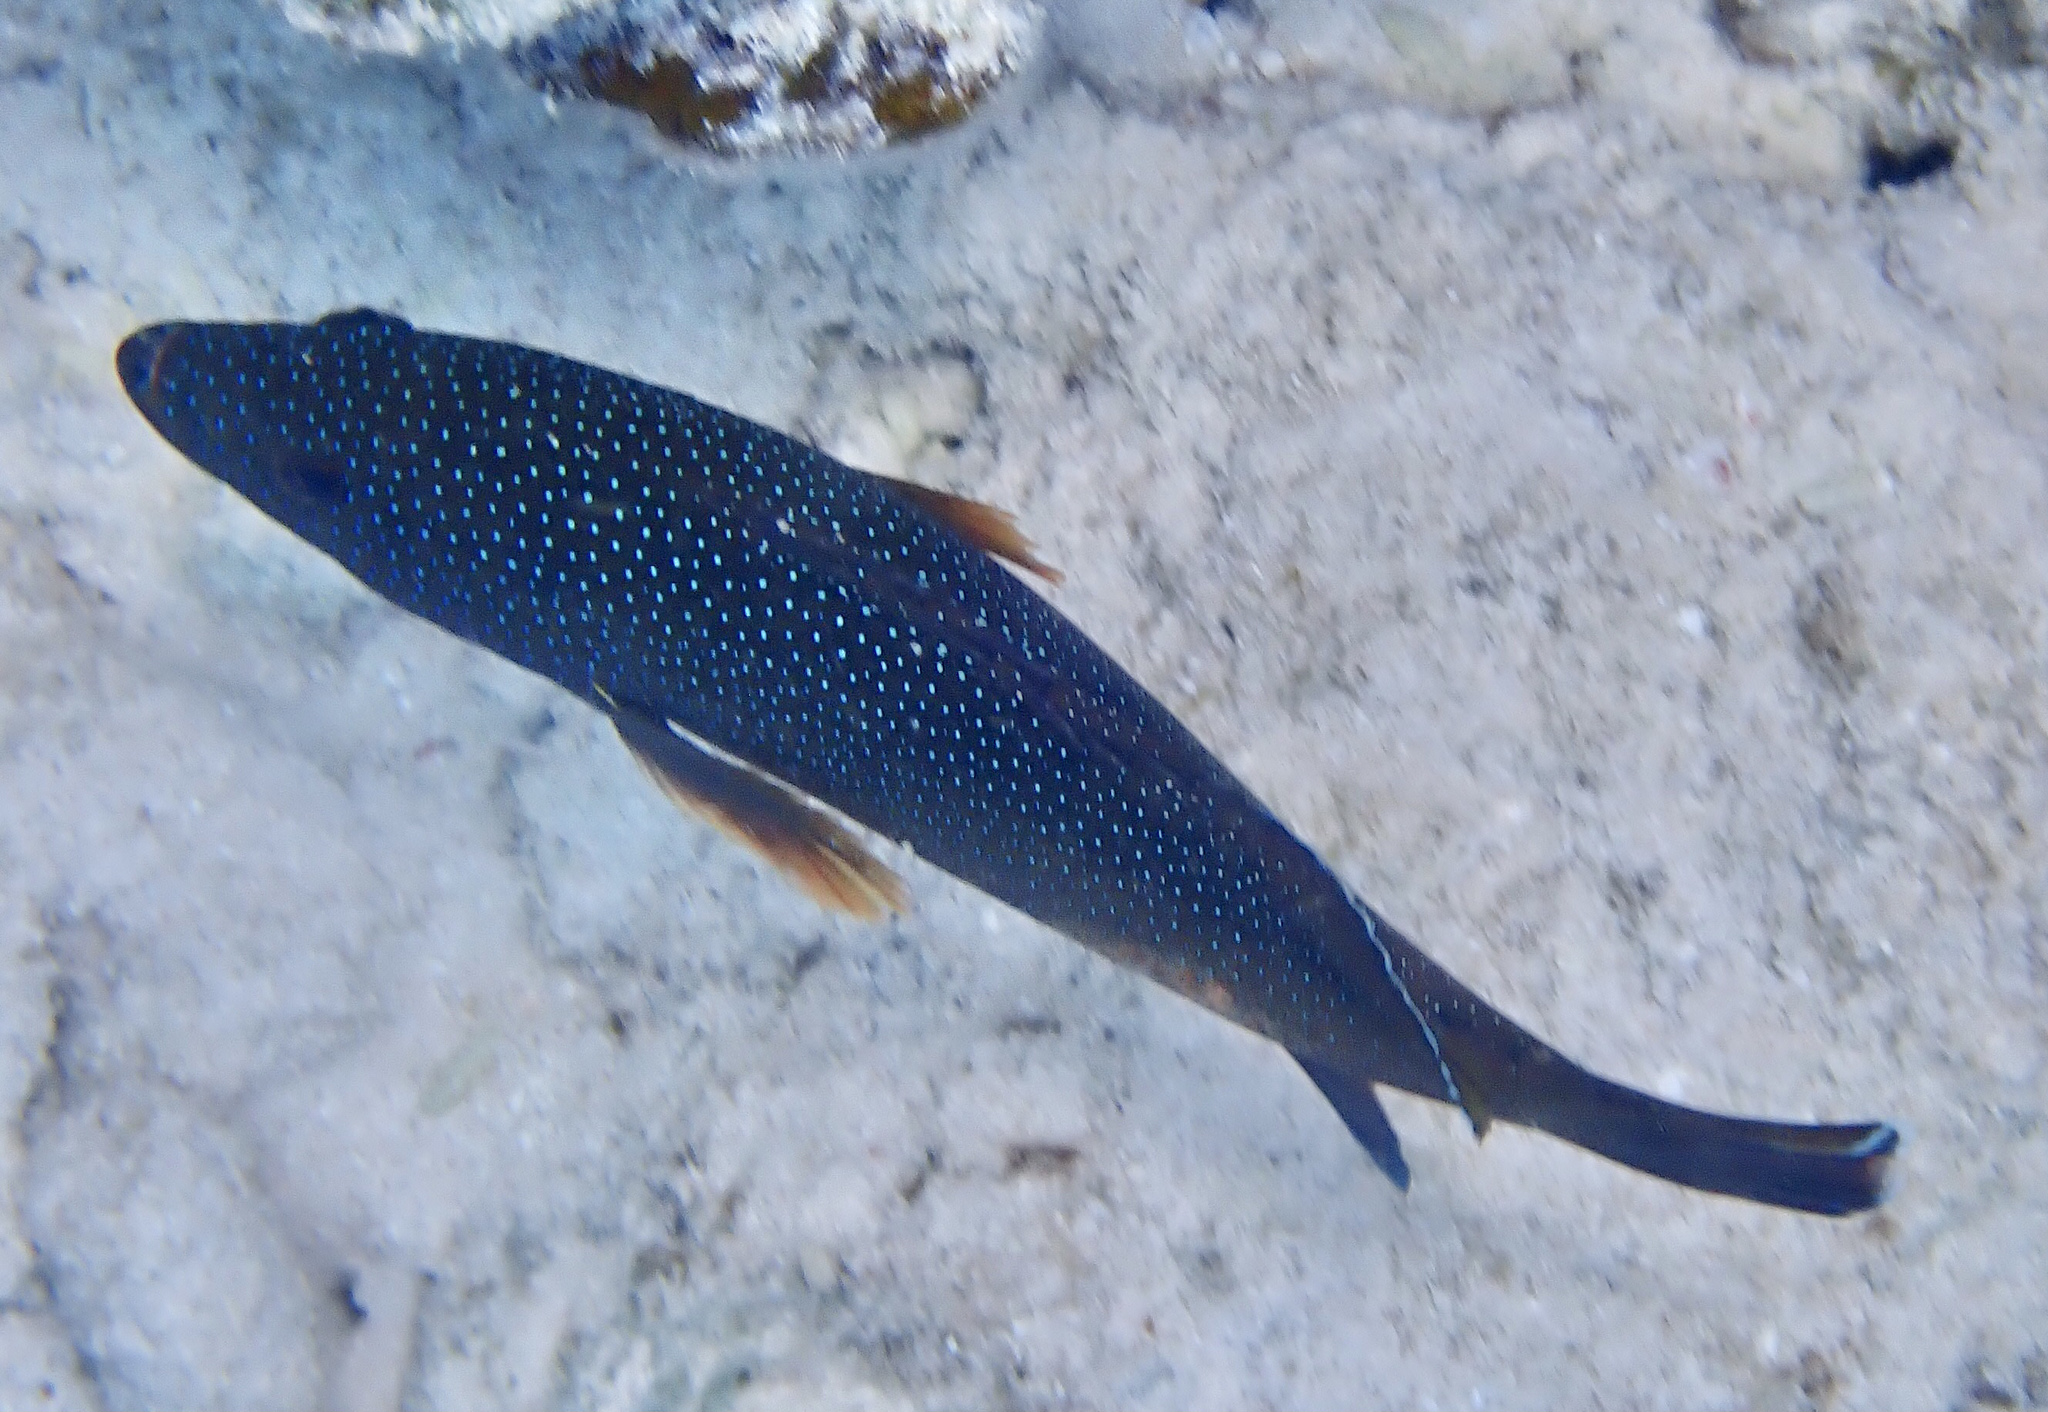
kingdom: Animalia
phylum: Chordata
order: Perciformes
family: Serranidae
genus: Cephalopholis
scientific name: Cephalopholis fulva
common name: Butterfish
